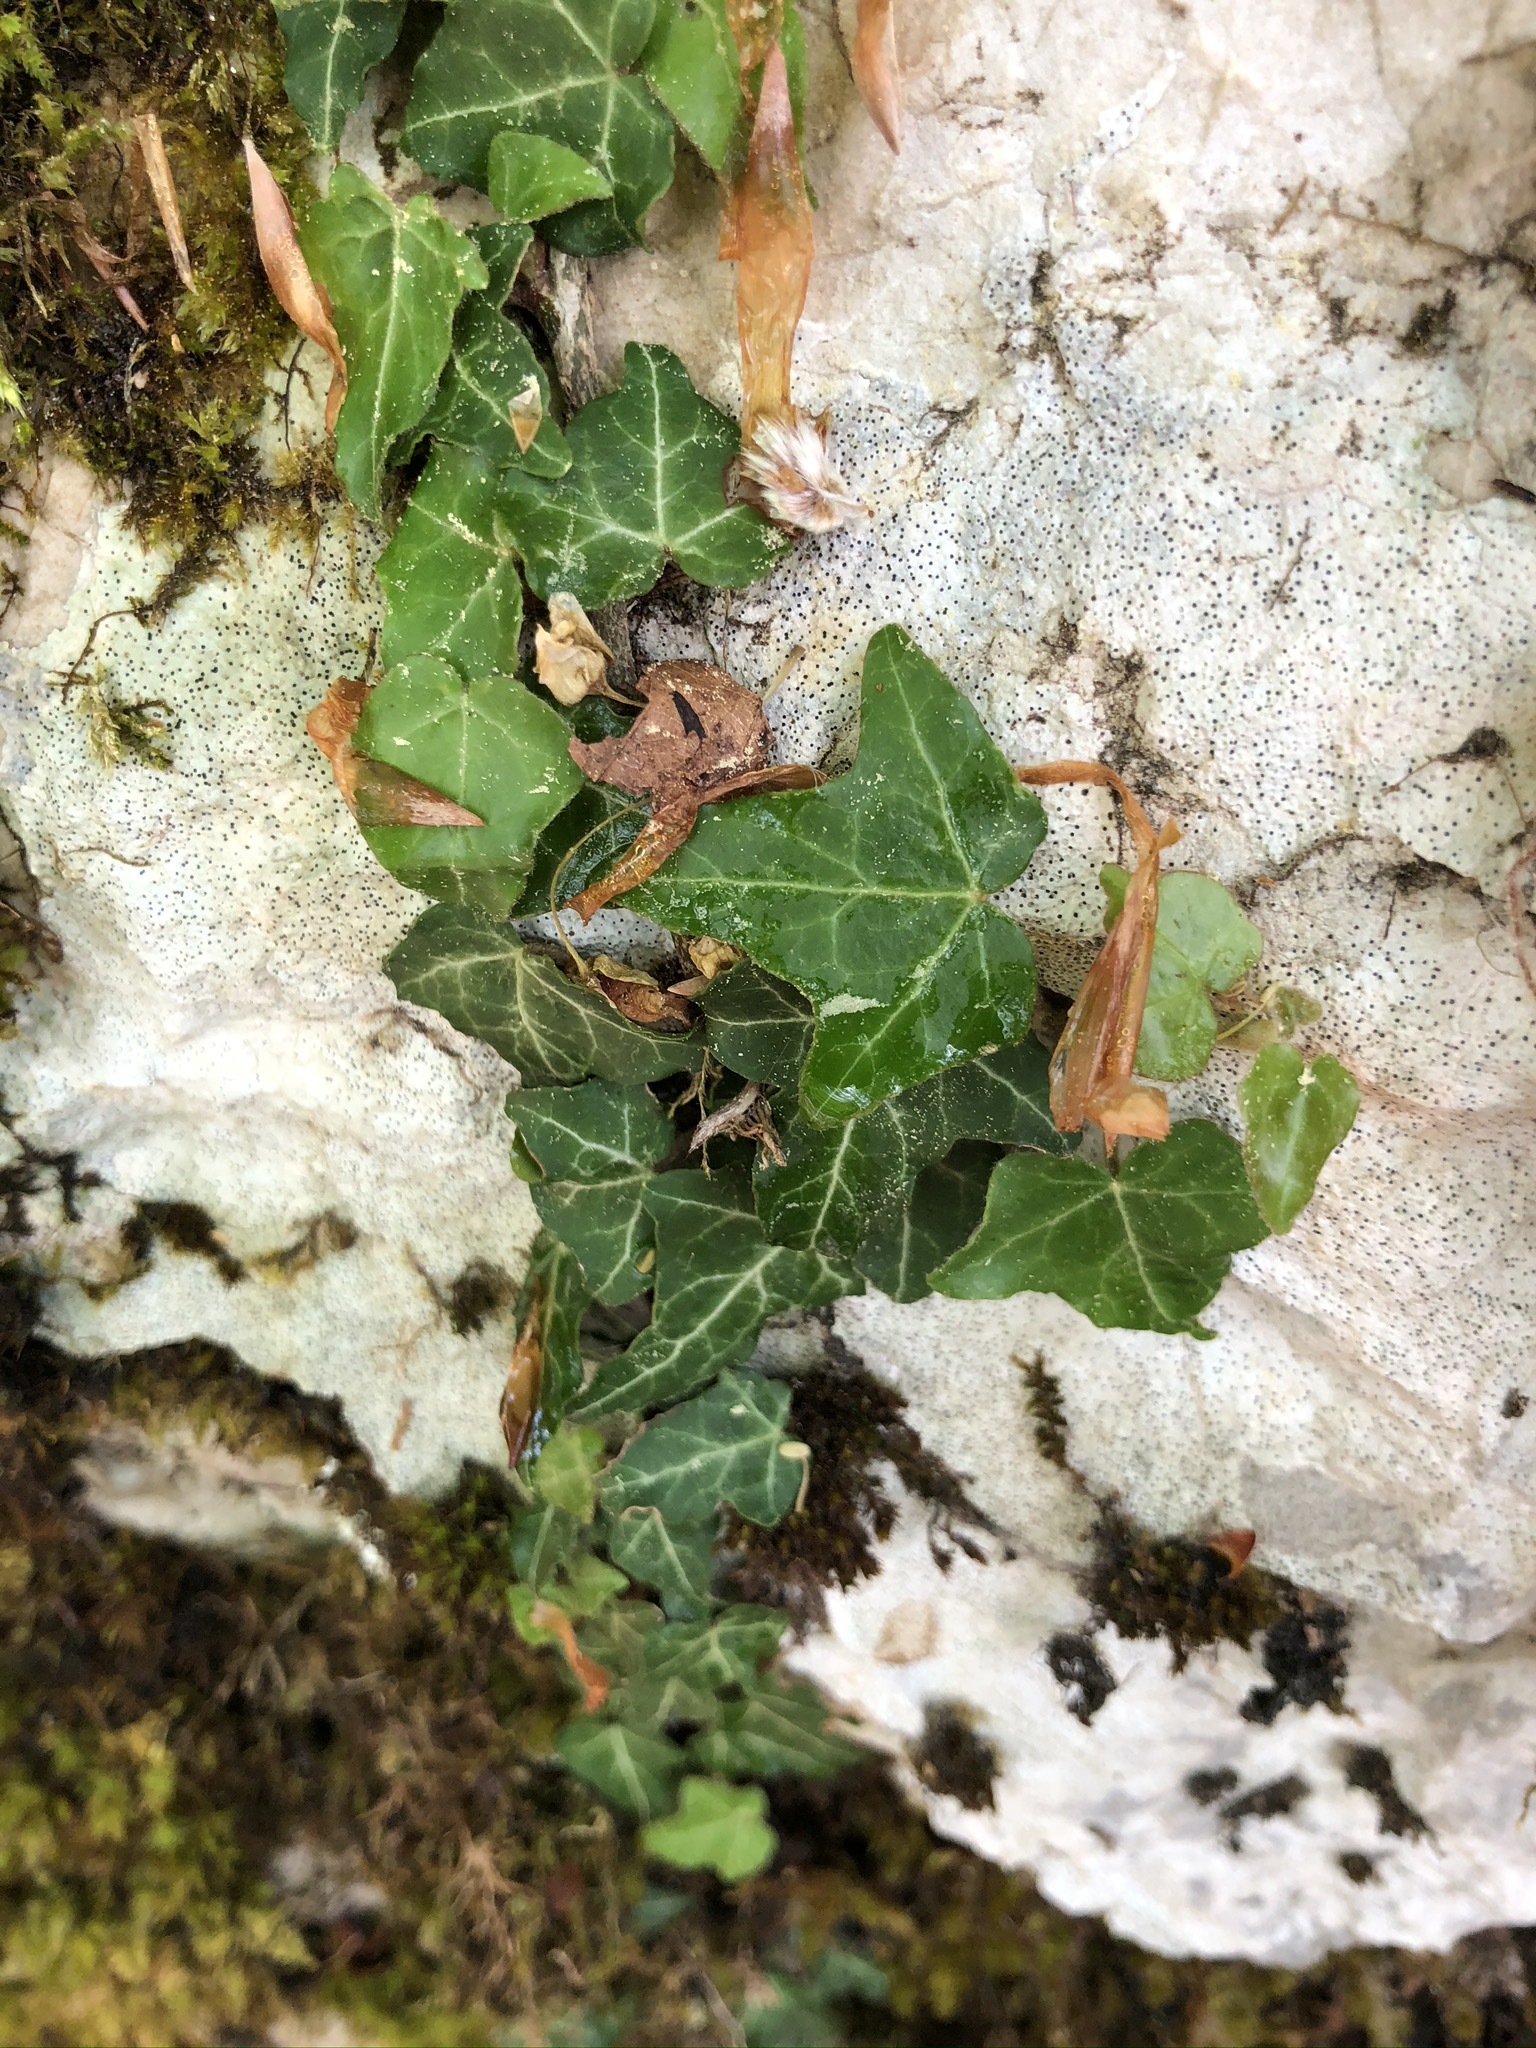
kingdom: Plantae
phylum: Tracheophyta
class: Magnoliopsida
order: Apiales
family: Araliaceae
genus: Hedera
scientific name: Hedera helix
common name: Ivy
